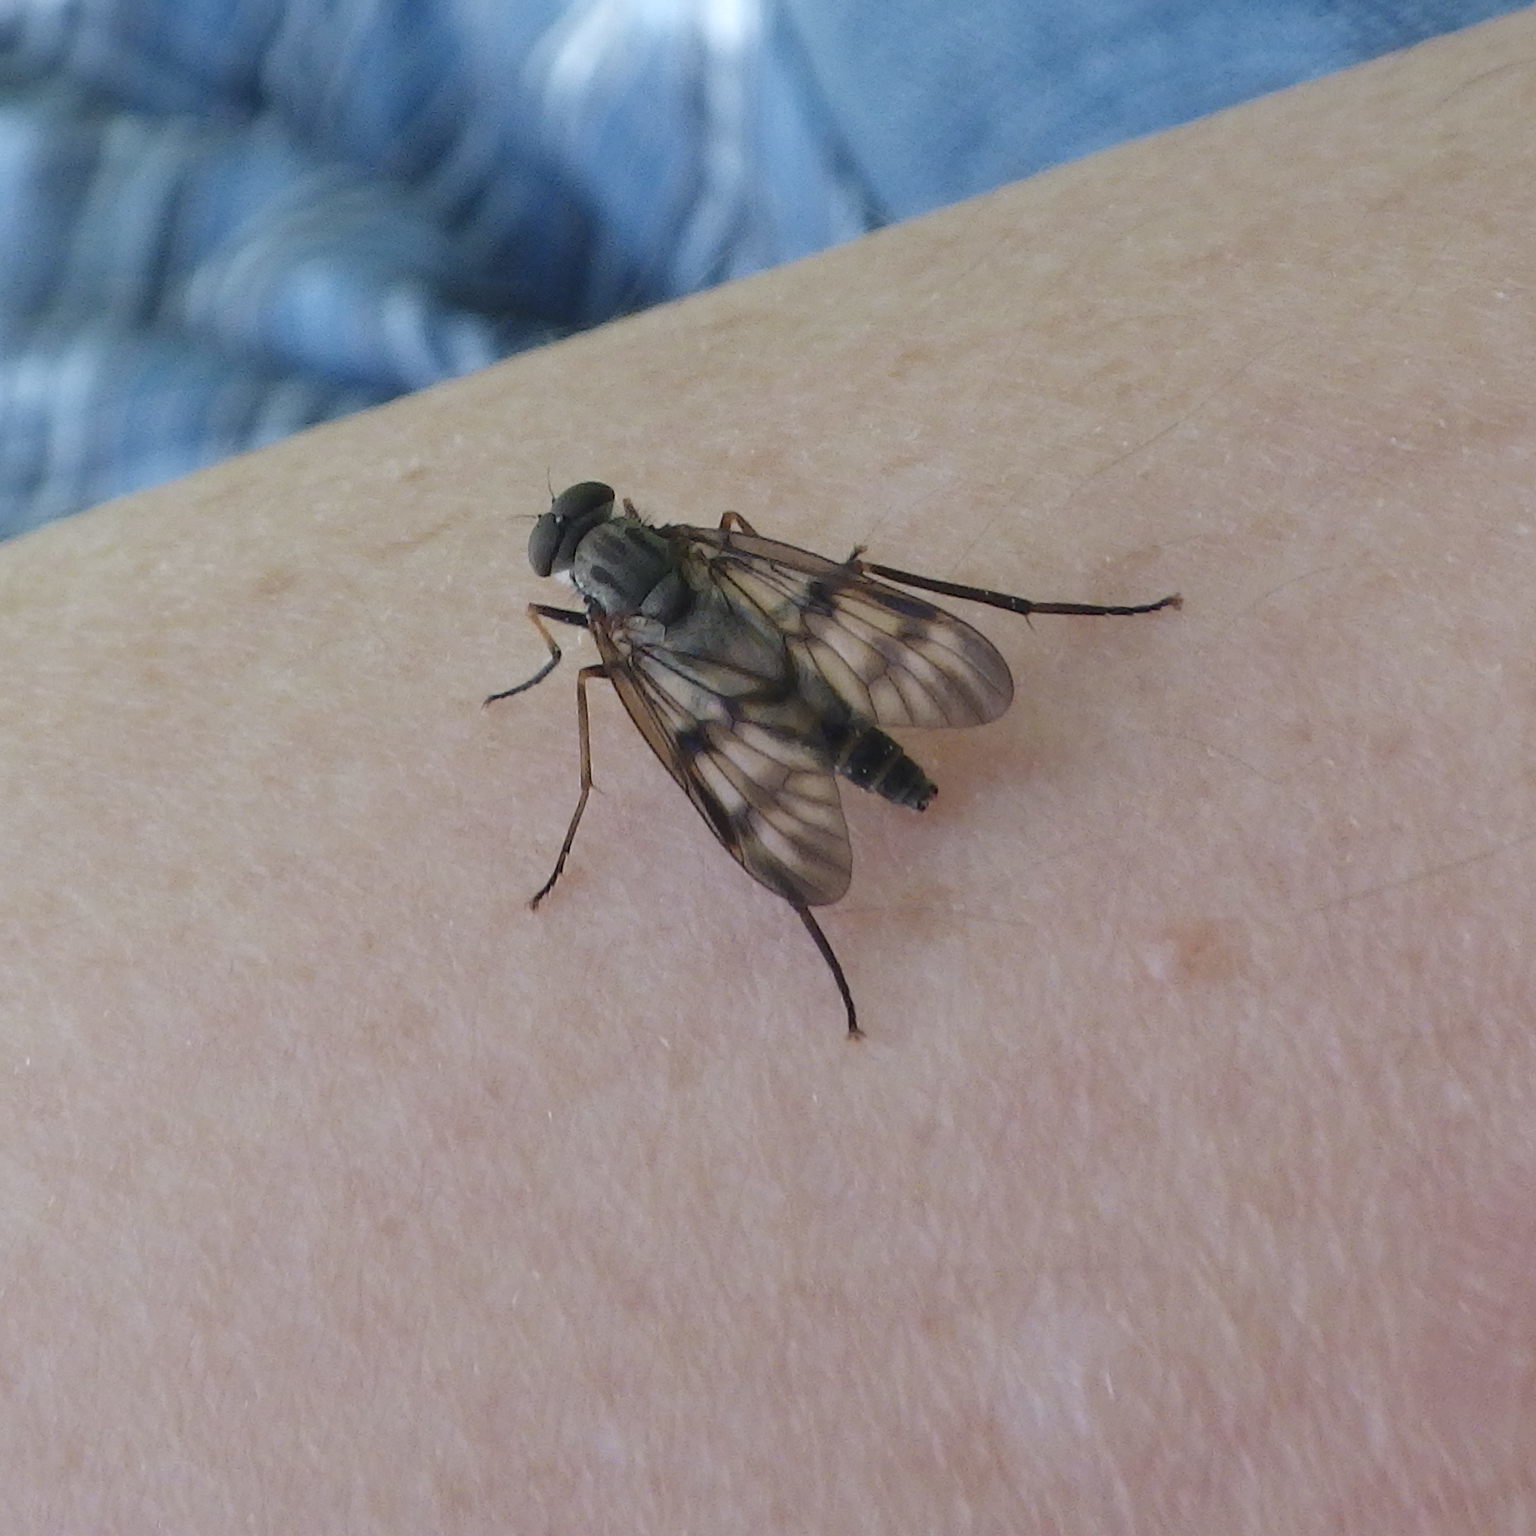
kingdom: Animalia
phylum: Arthropoda
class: Insecta
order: Diptera
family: Rhagionidae
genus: Rhagio
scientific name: Rhagio mystaceus
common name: Common snipe fly
